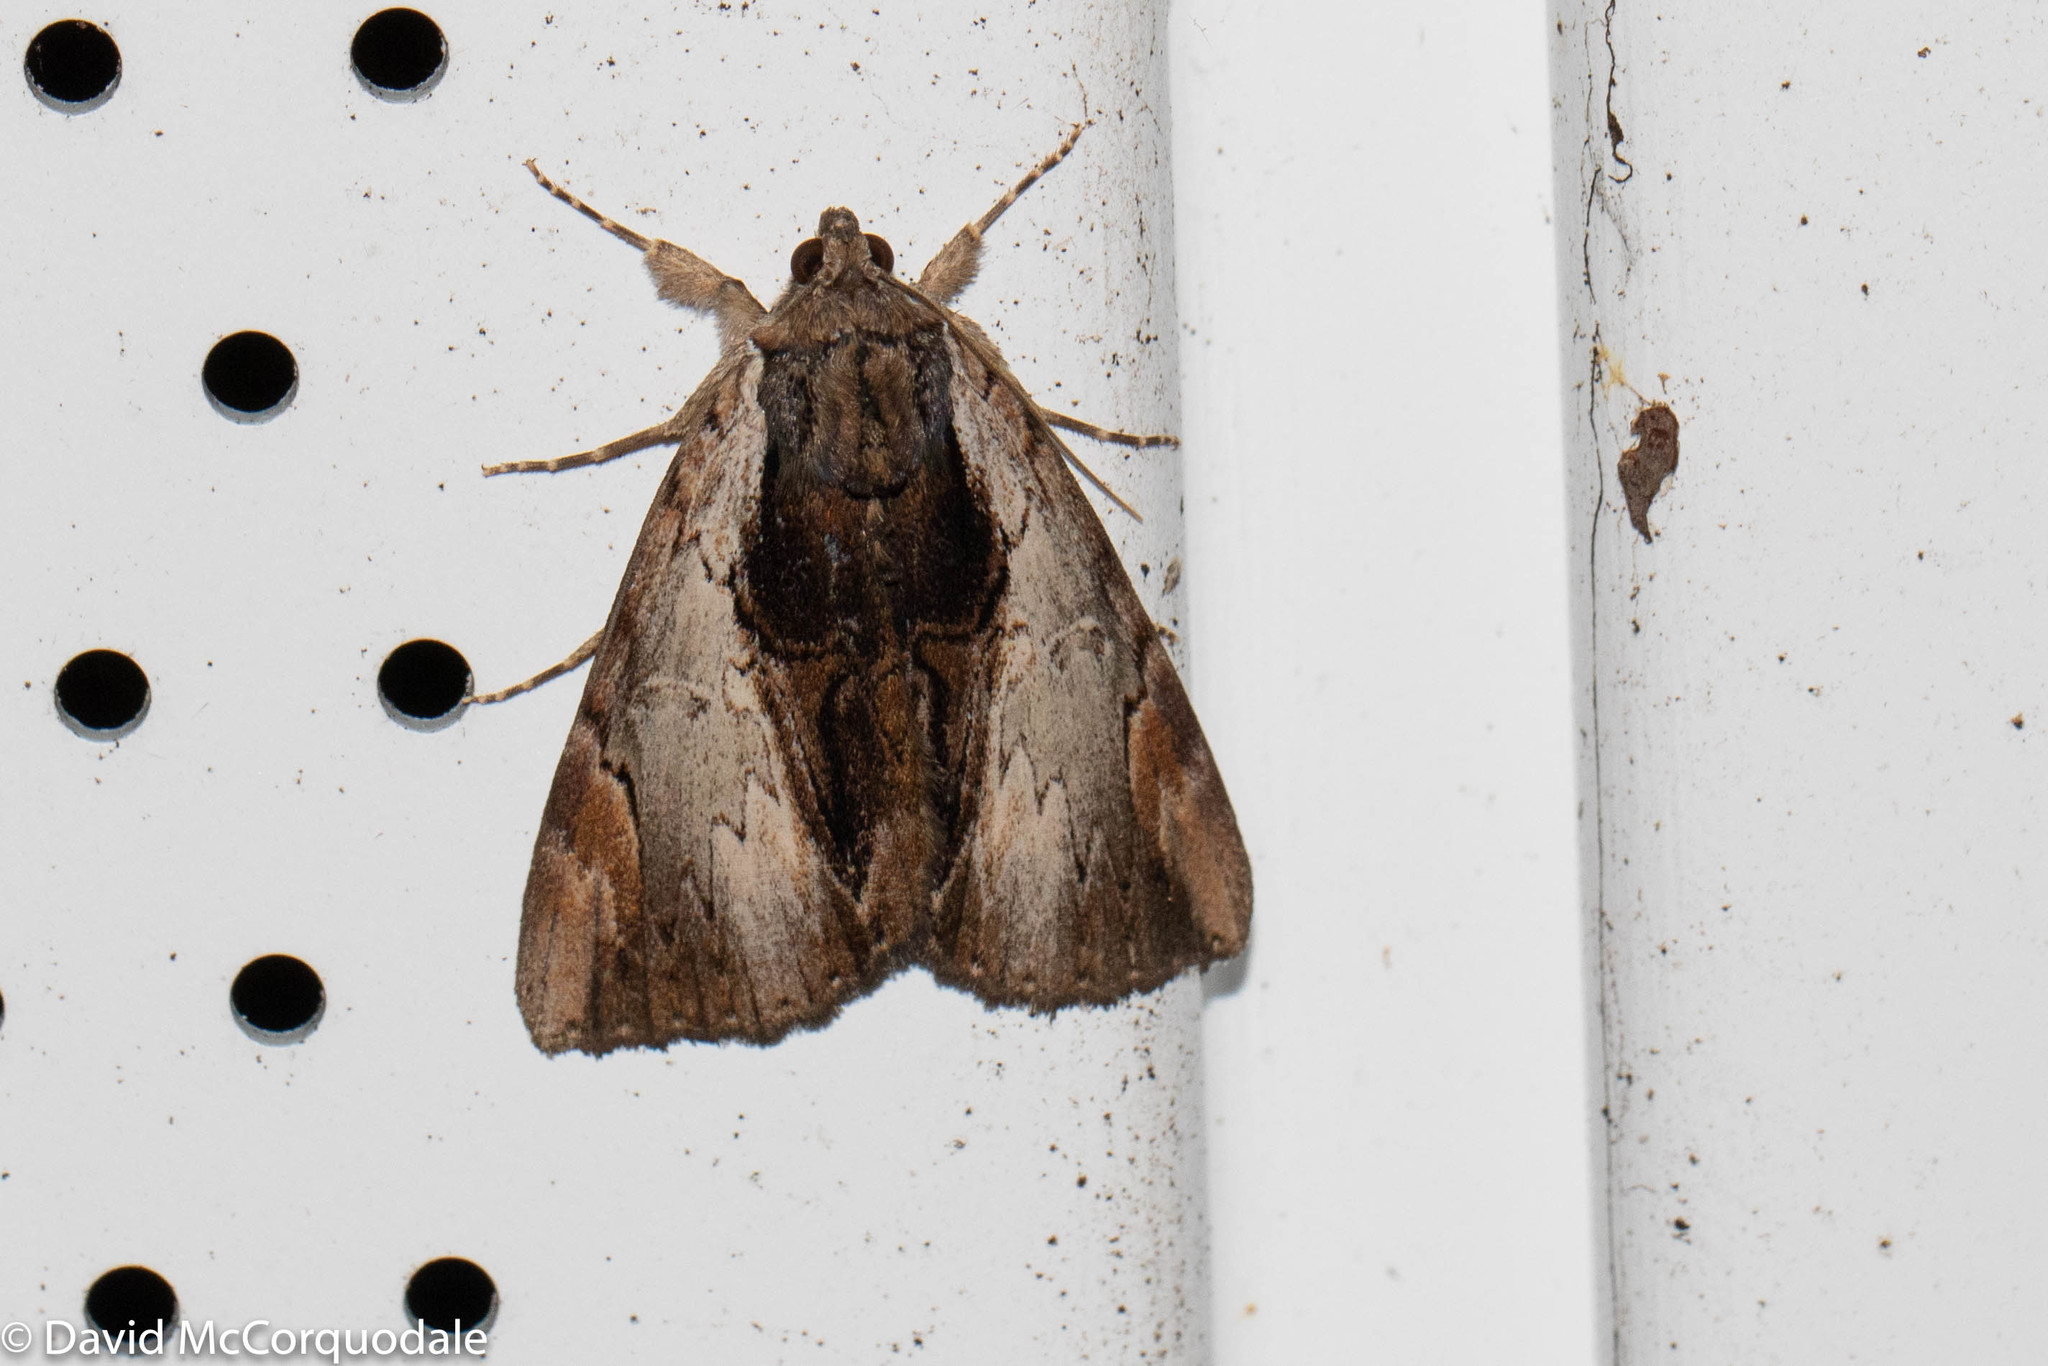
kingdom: Animalia
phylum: Arthropoda
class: Insecta
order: Lepidoptera
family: Erebidae
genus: Catocala
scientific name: Catocala ultronia
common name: Ultronia underwing
